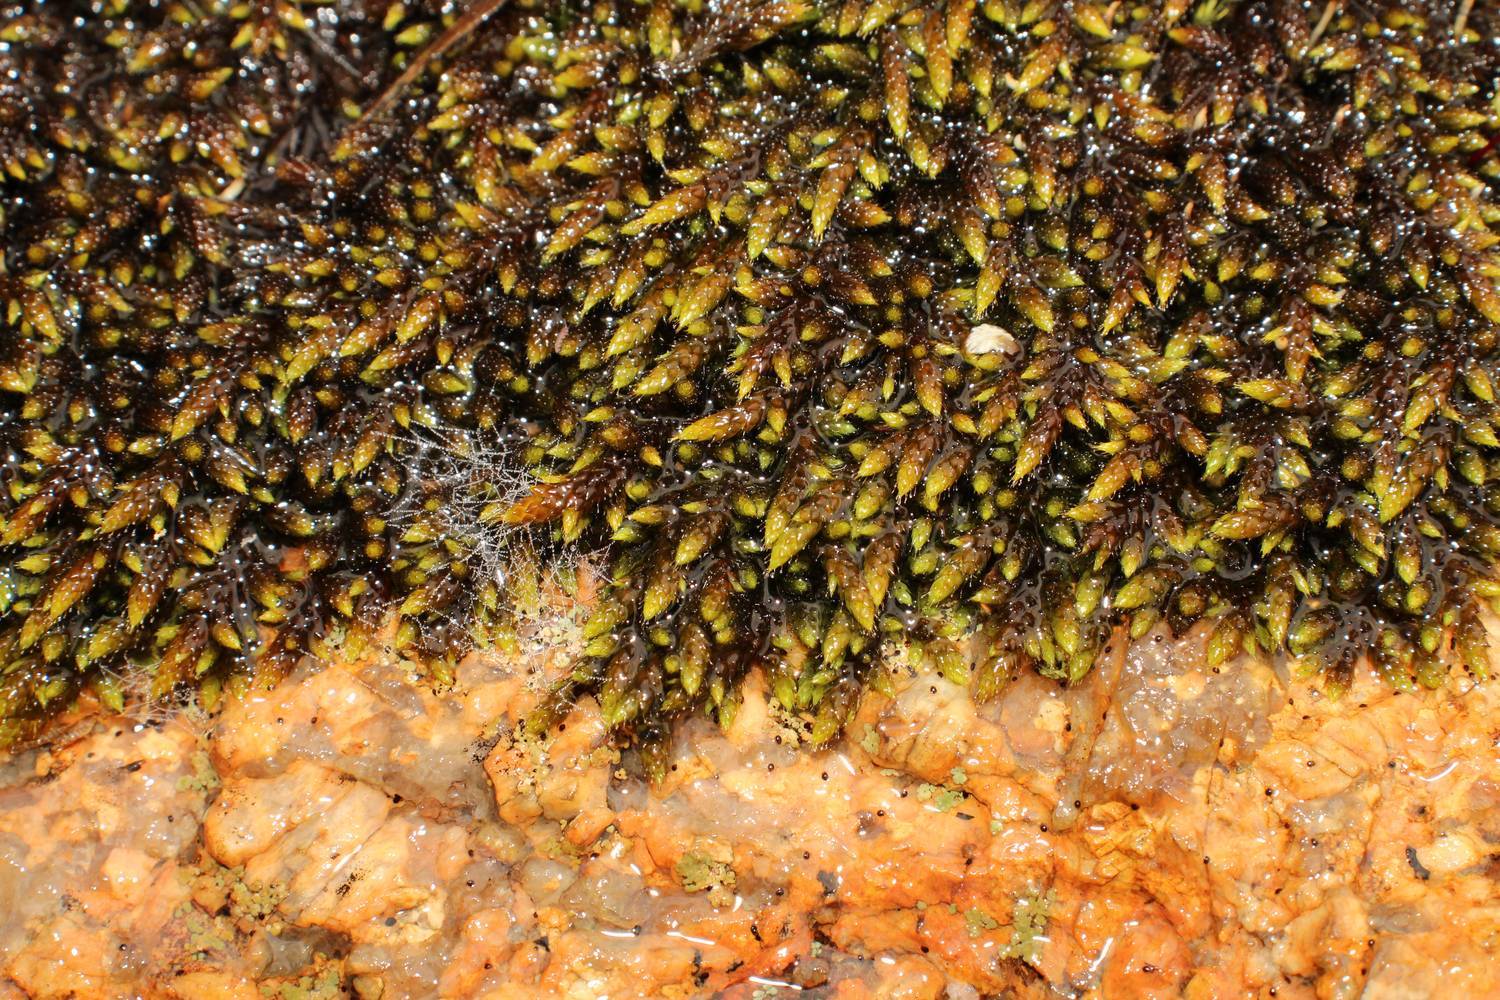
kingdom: Plantae
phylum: Bryophyta
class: Bryopsida
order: Hedwigiales
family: Hedwigiaceae
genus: Rhacocarpus
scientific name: Rhacocarpus purpurascens
